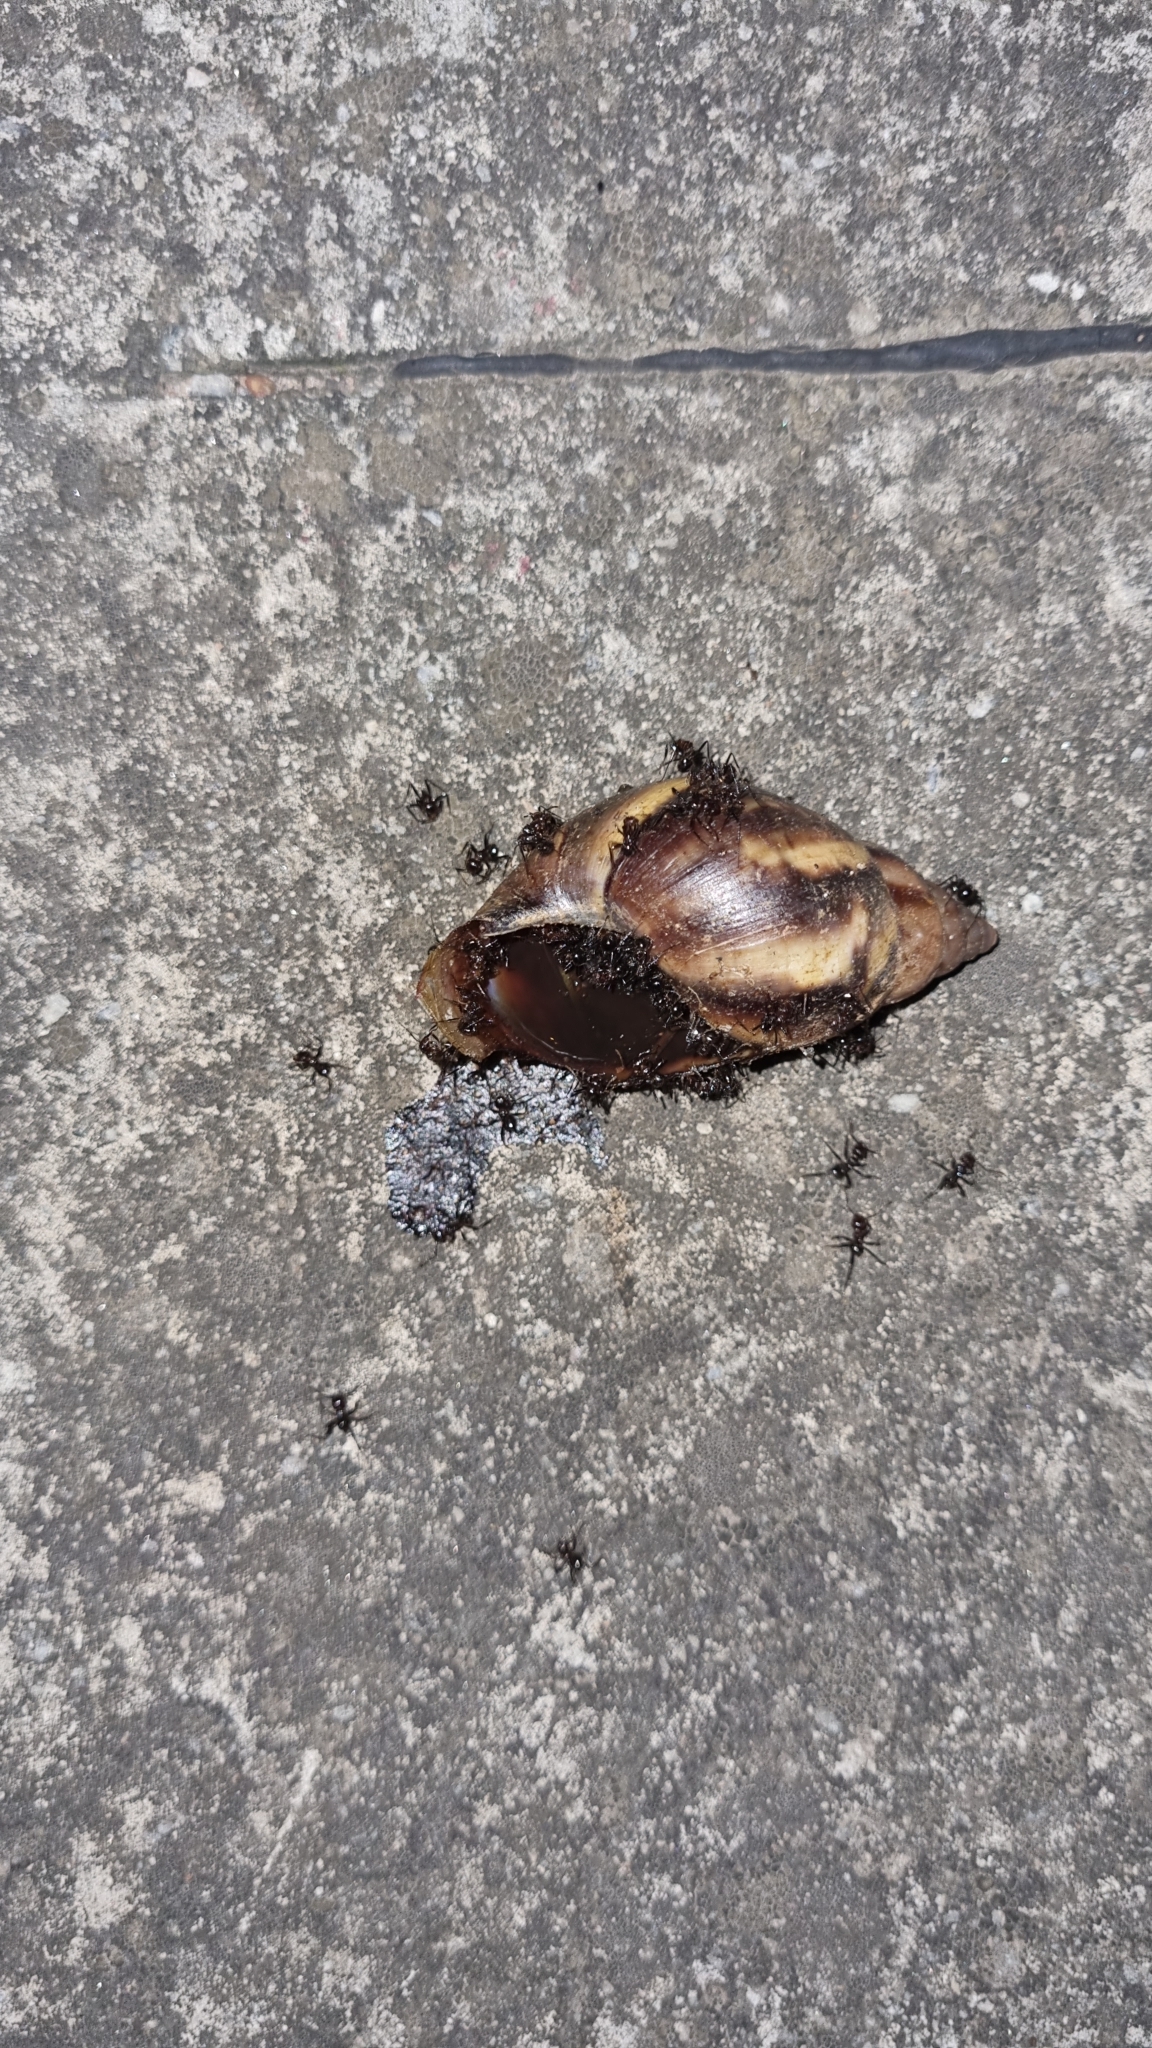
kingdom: Animalia
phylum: Mollusca
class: Gastropoda
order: Stylommatophora
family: Achatinidae
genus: Lissachatina
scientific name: Lissachatina fulica
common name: Giant african snail
